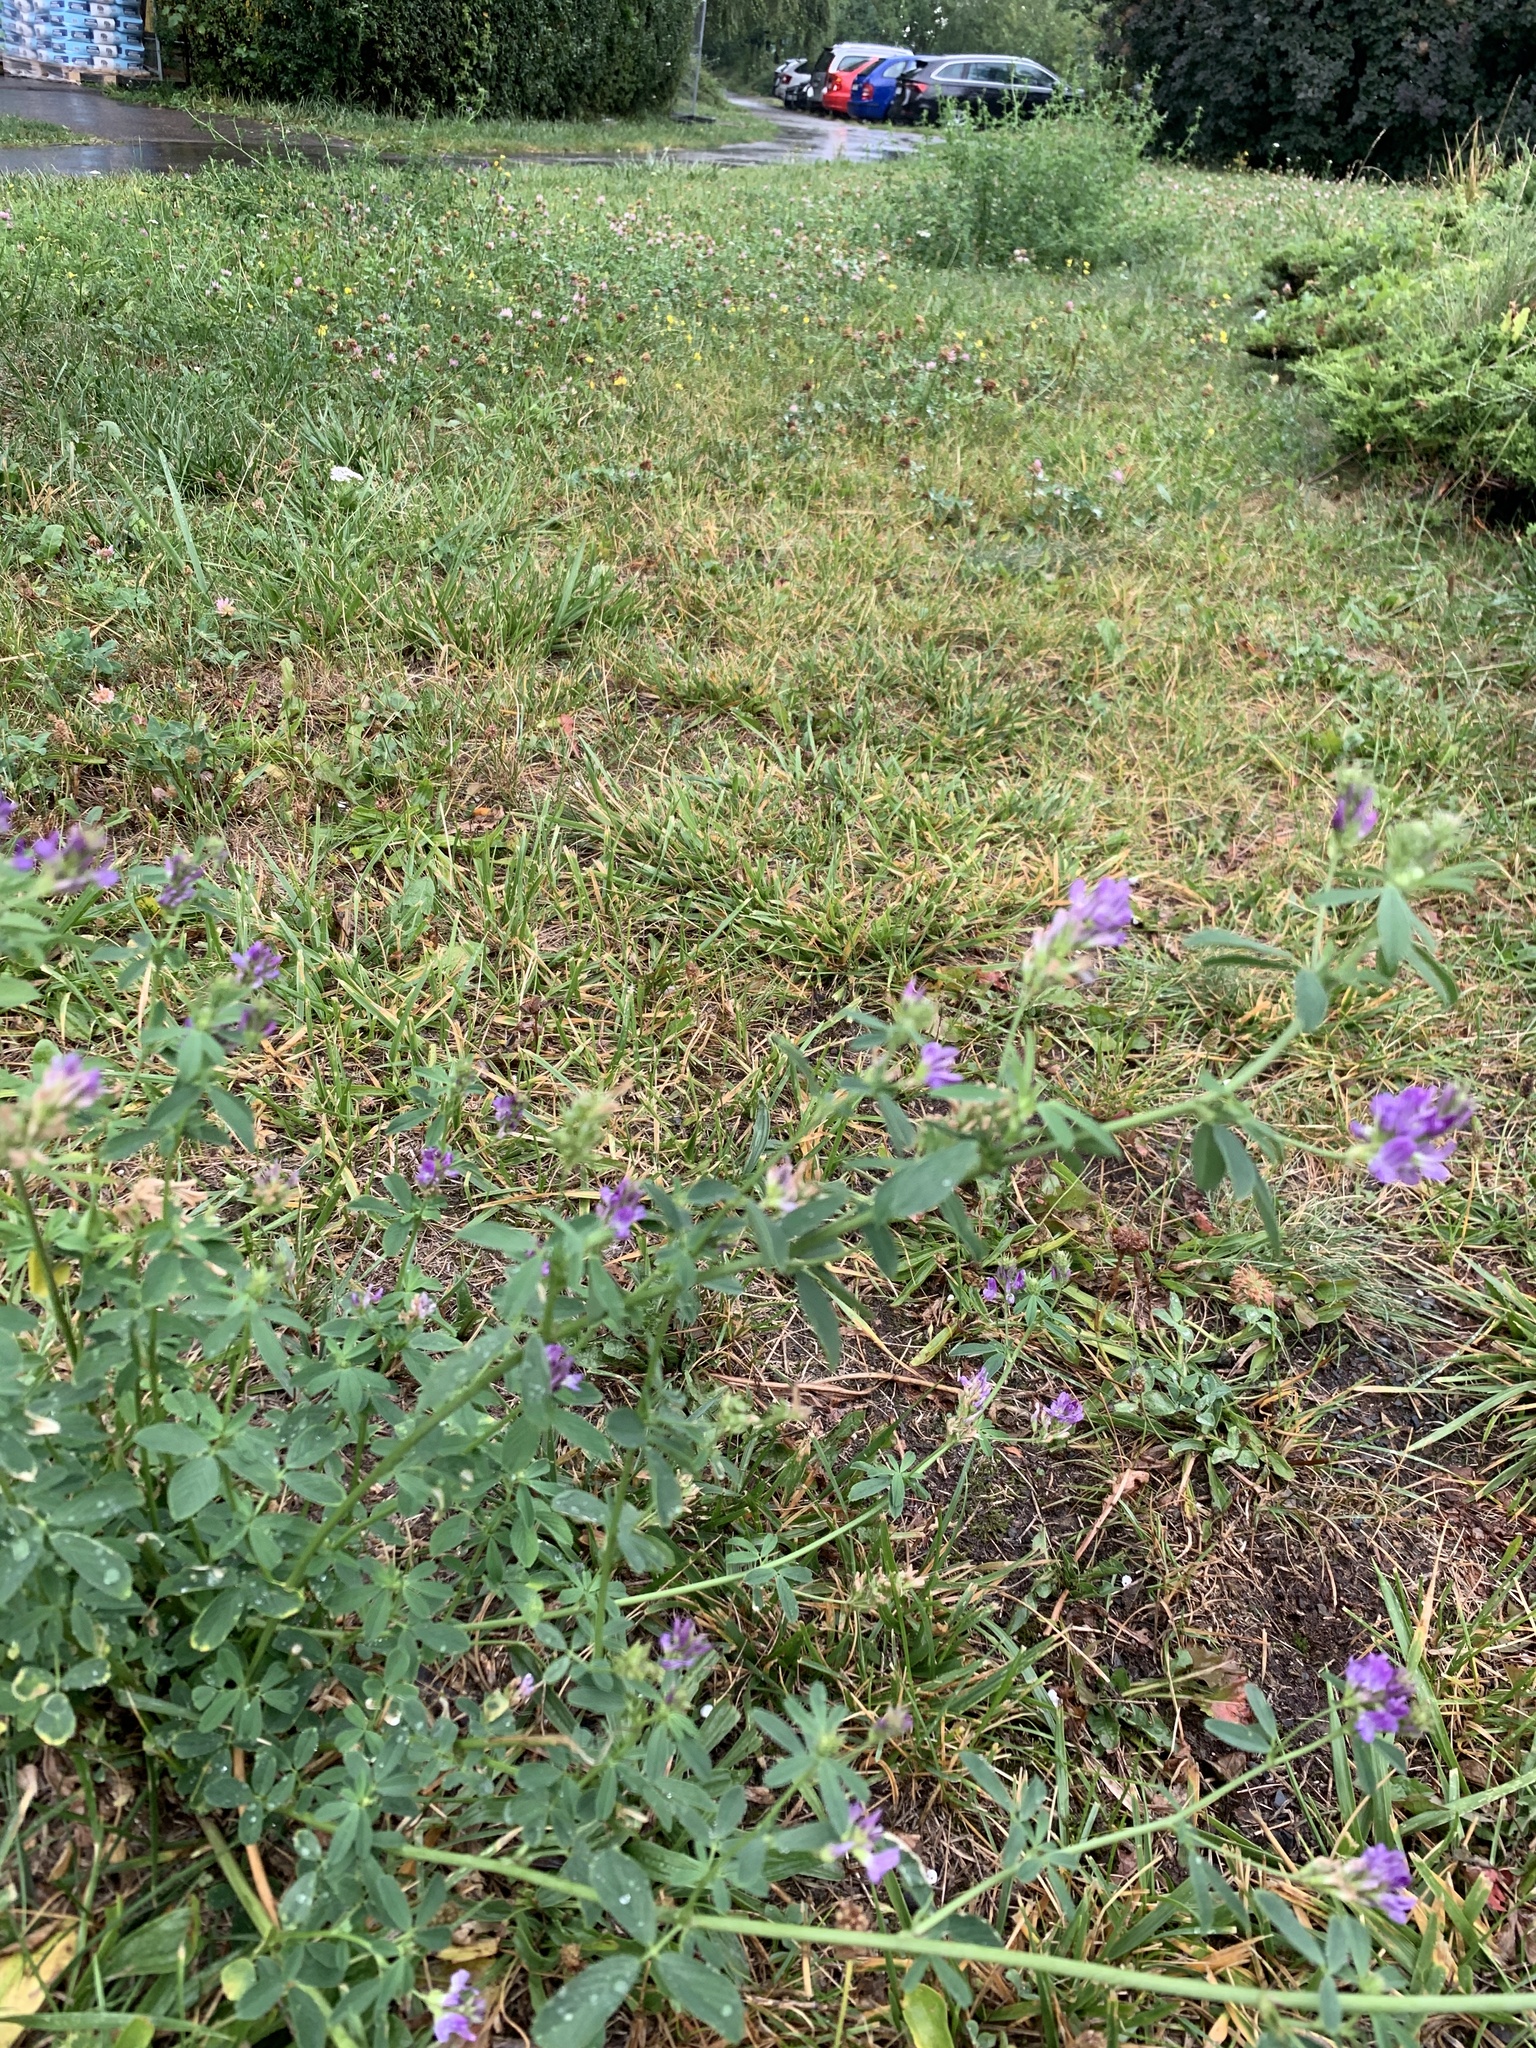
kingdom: Plantae
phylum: Tracheophyta
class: Magnoliopsida
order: Fabales
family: Fabaceae
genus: Medicago
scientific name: Medicago sativa
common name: Alfalfa
